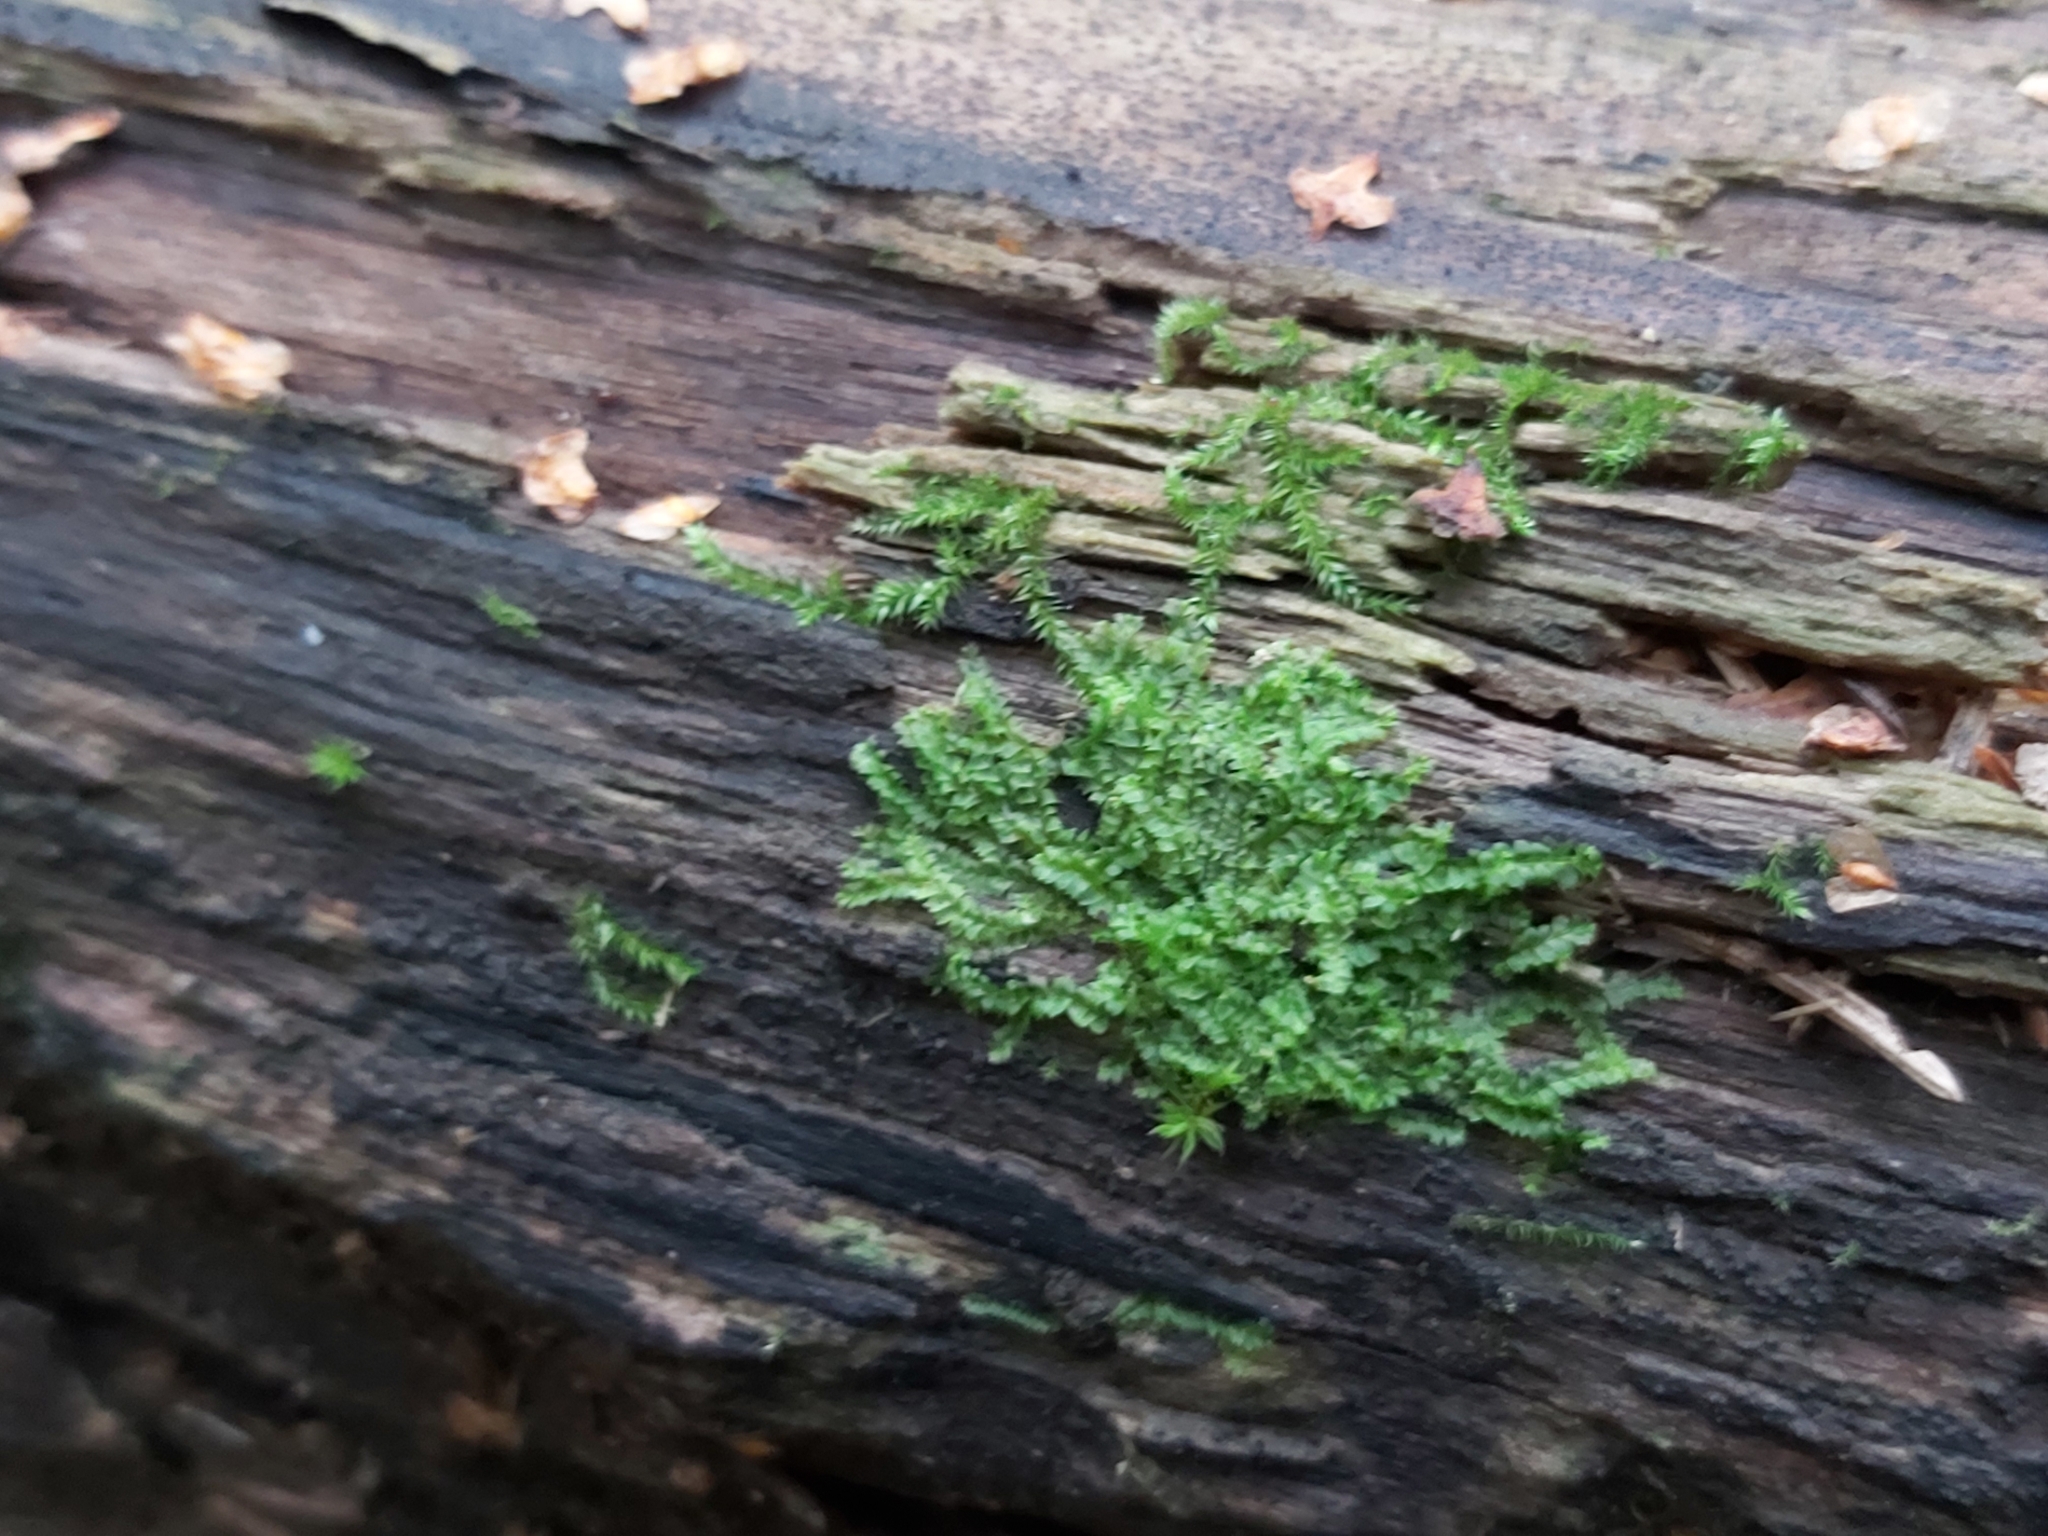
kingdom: Plantae
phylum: Marchantiophyta
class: Jungermanniopsida
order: Jungermanniales
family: Lophocoleaceae
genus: Lophocolea
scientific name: Lophocolea heterophylla
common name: Variable-leaved crestwort
